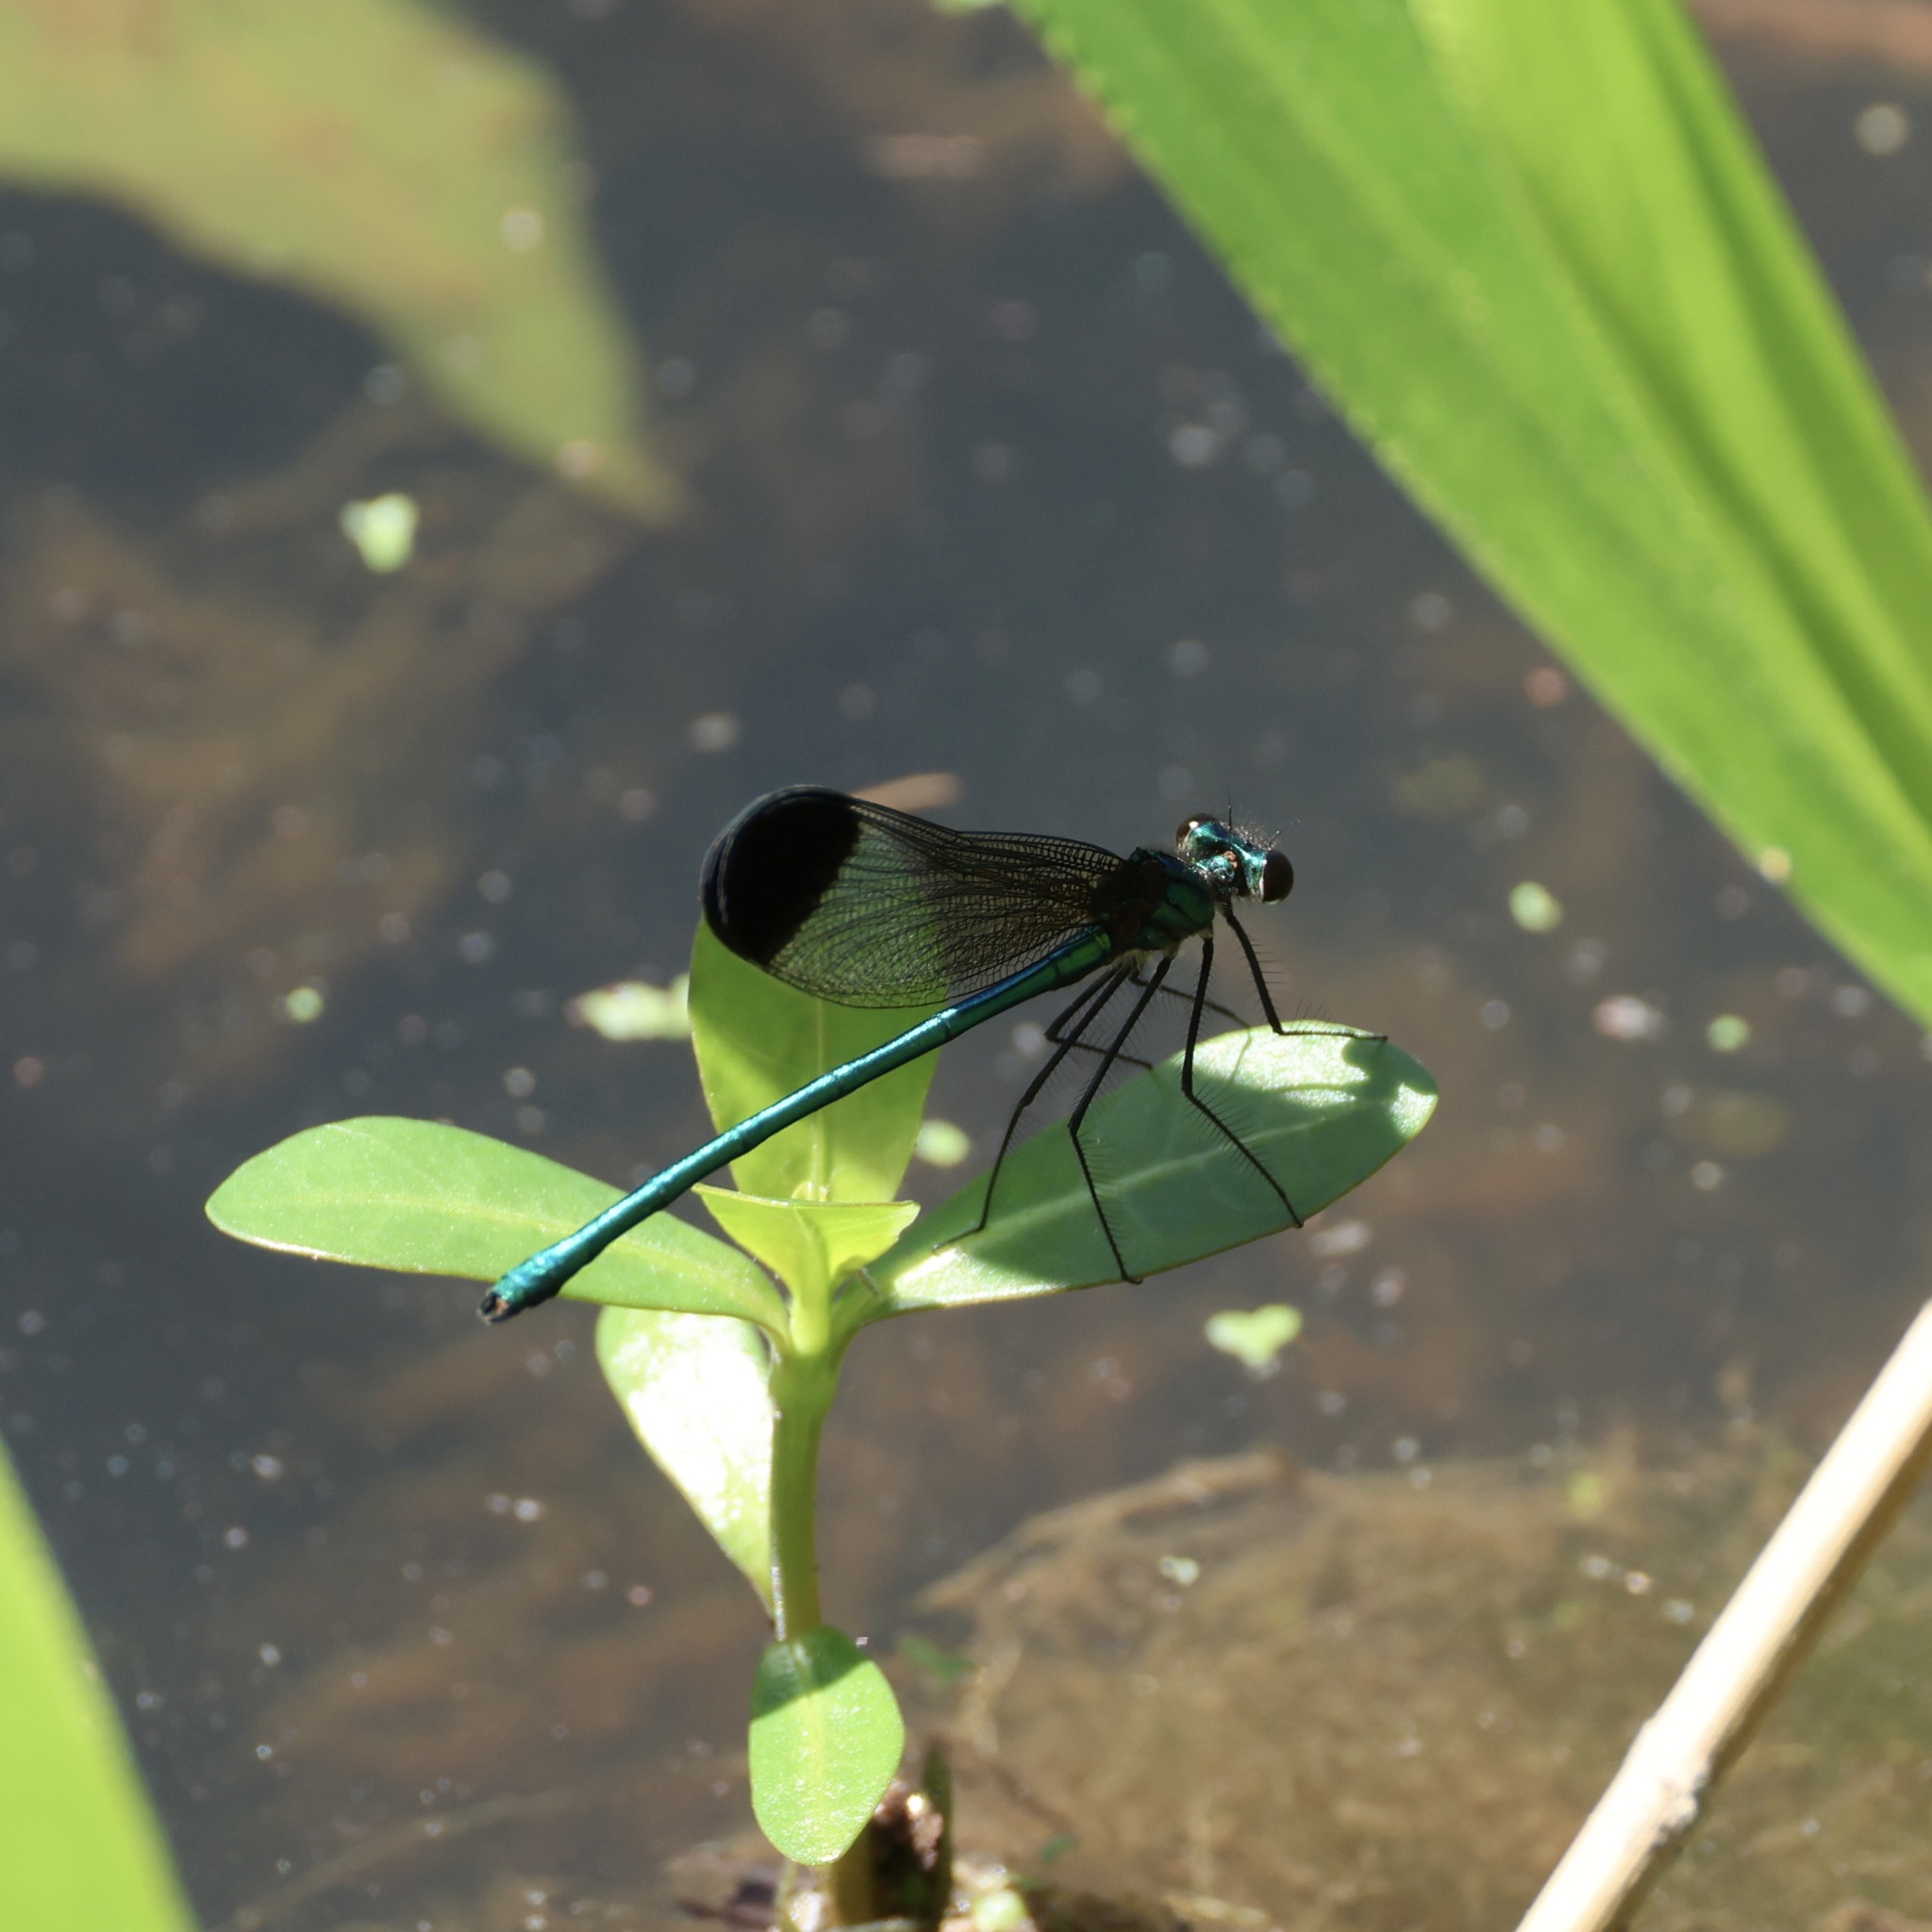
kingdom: Animalia
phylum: Arthropoda
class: Insecta
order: Odonata
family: Calopterygidae
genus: Calopteryx
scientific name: Calopteryx dimidiata
